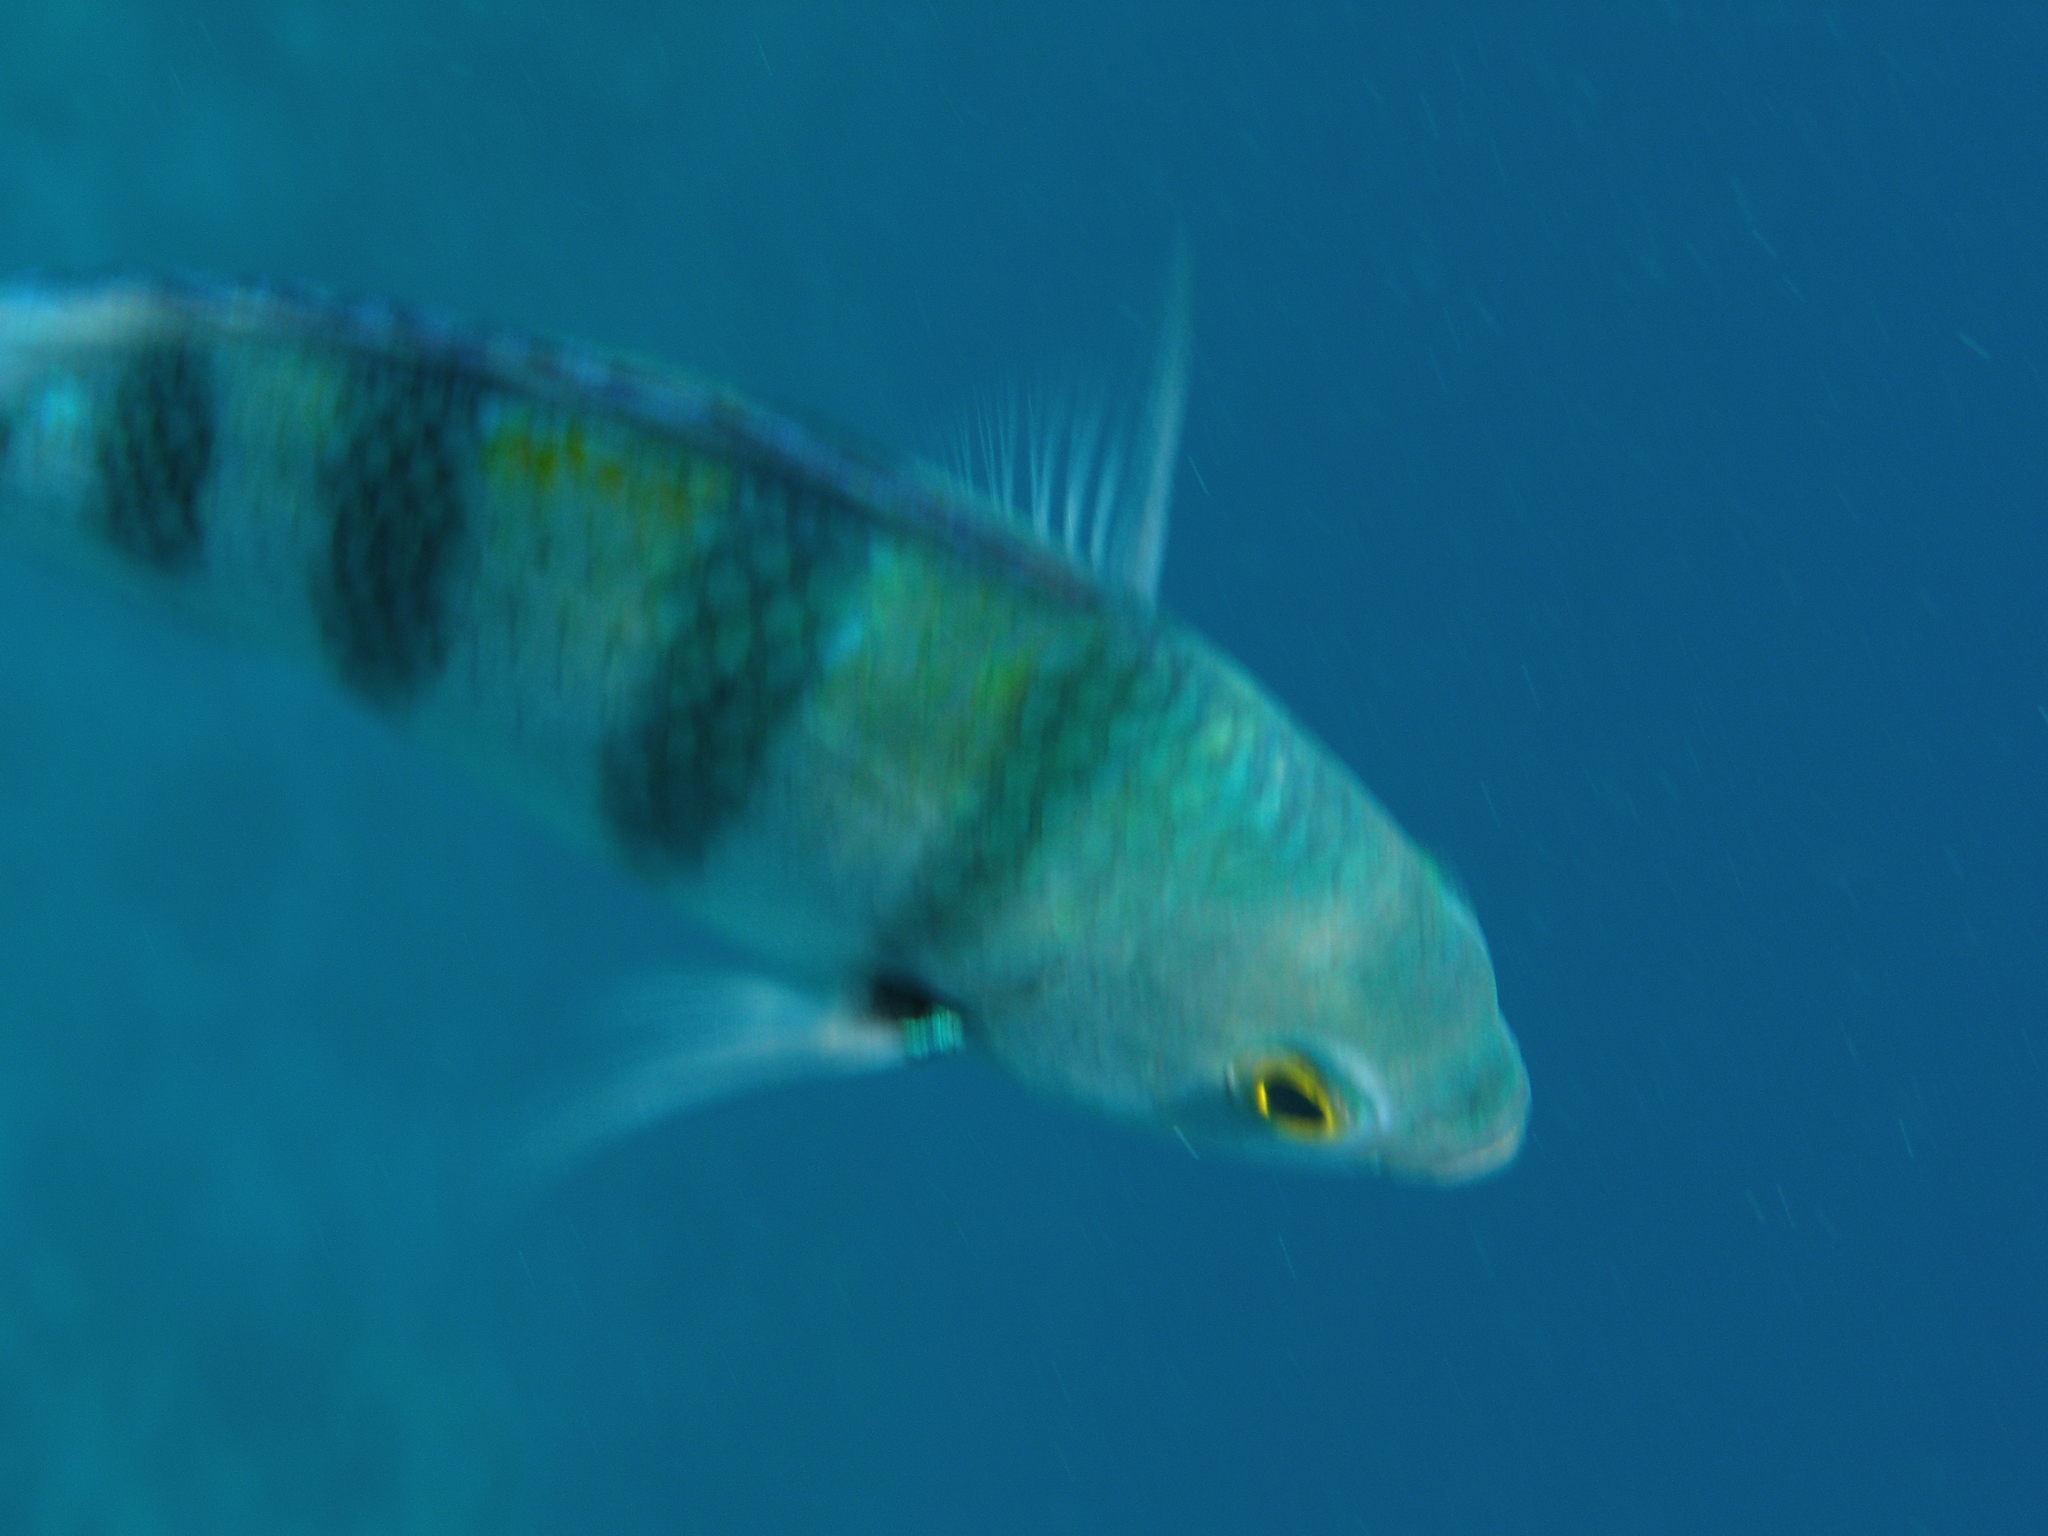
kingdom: Animalia
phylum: Chordata
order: Perciformes
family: Pomacentridae
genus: Abudefduf
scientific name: Abudefduf vaigiensis
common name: Indo-pacific sergeant
